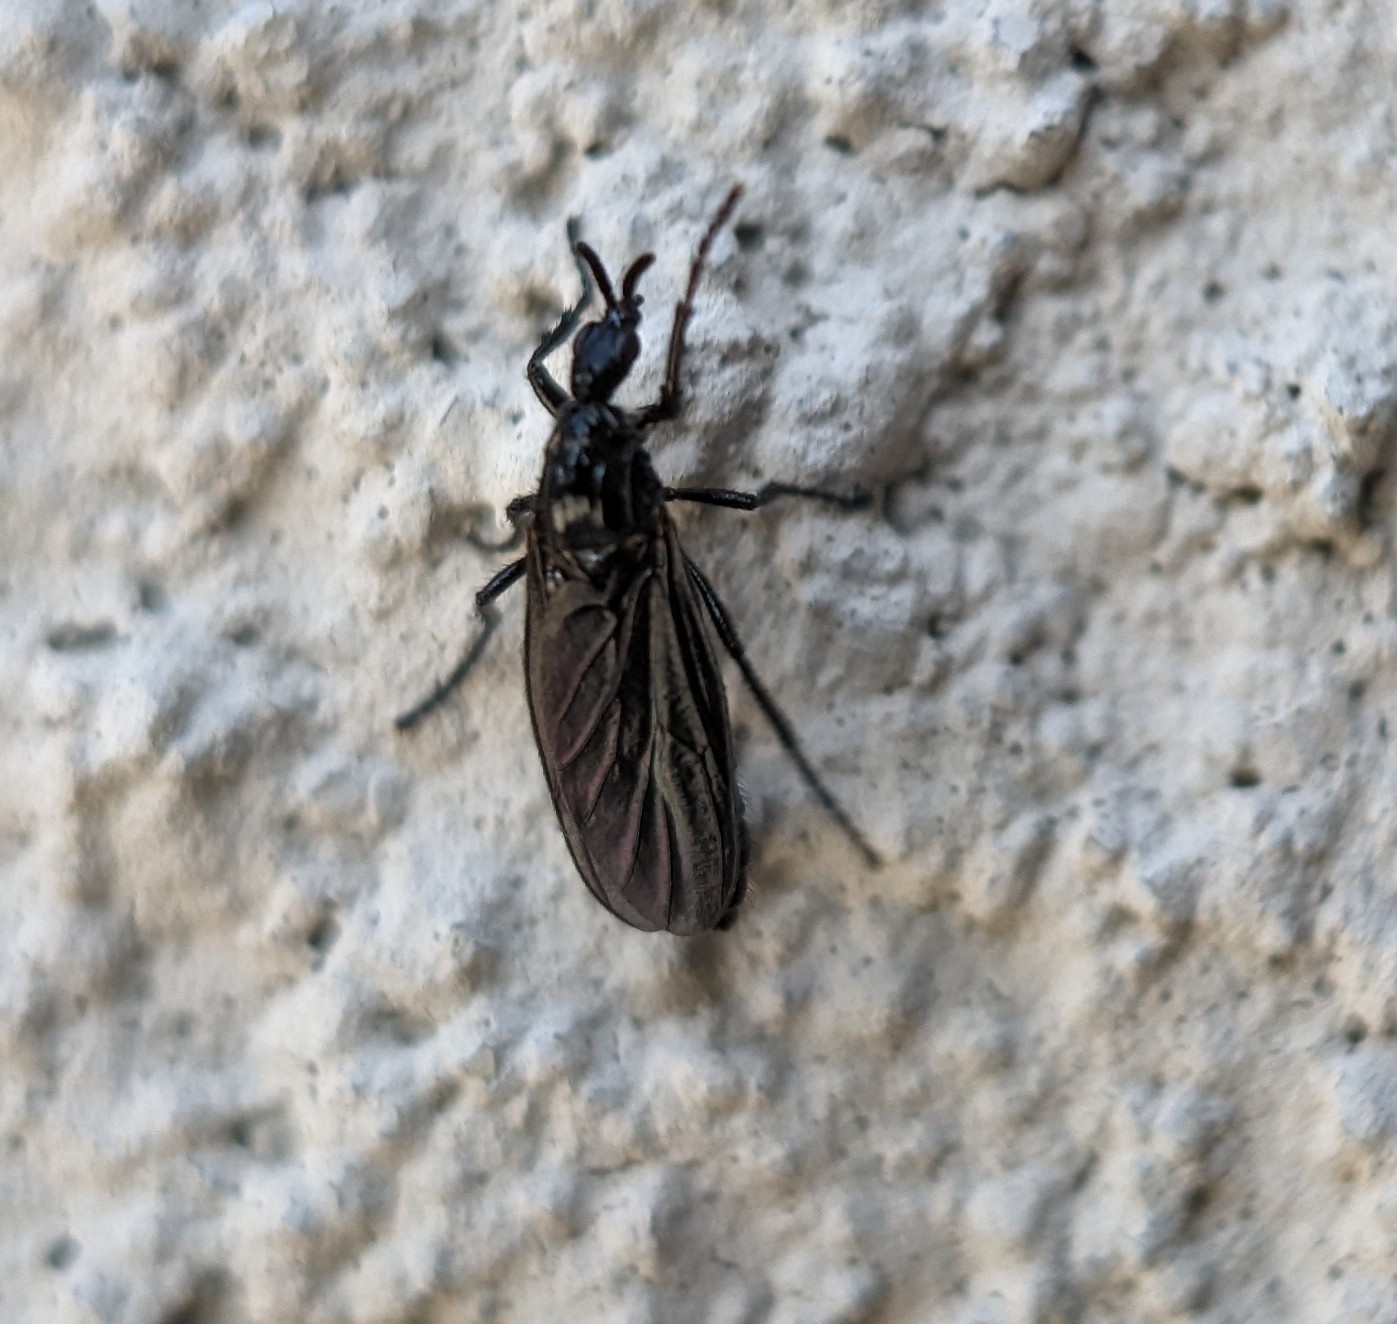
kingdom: Animalia
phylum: Arthropoda
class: Insecta
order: Diptera
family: Bibionidae
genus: Dilophus
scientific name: Dilophus orbatus
